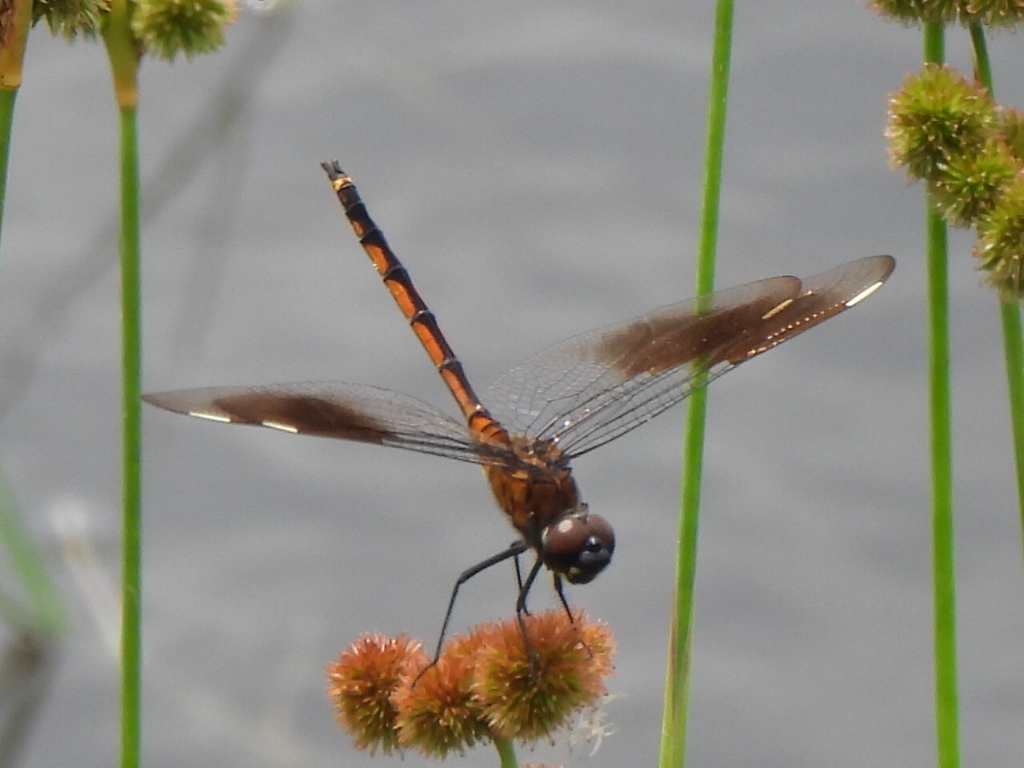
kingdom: Animalia
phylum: Arthropoda
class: Insecta
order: Odonata
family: Libellulidae
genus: Brachymesia
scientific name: Brachymesia gravida
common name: Four-spotted pennant
